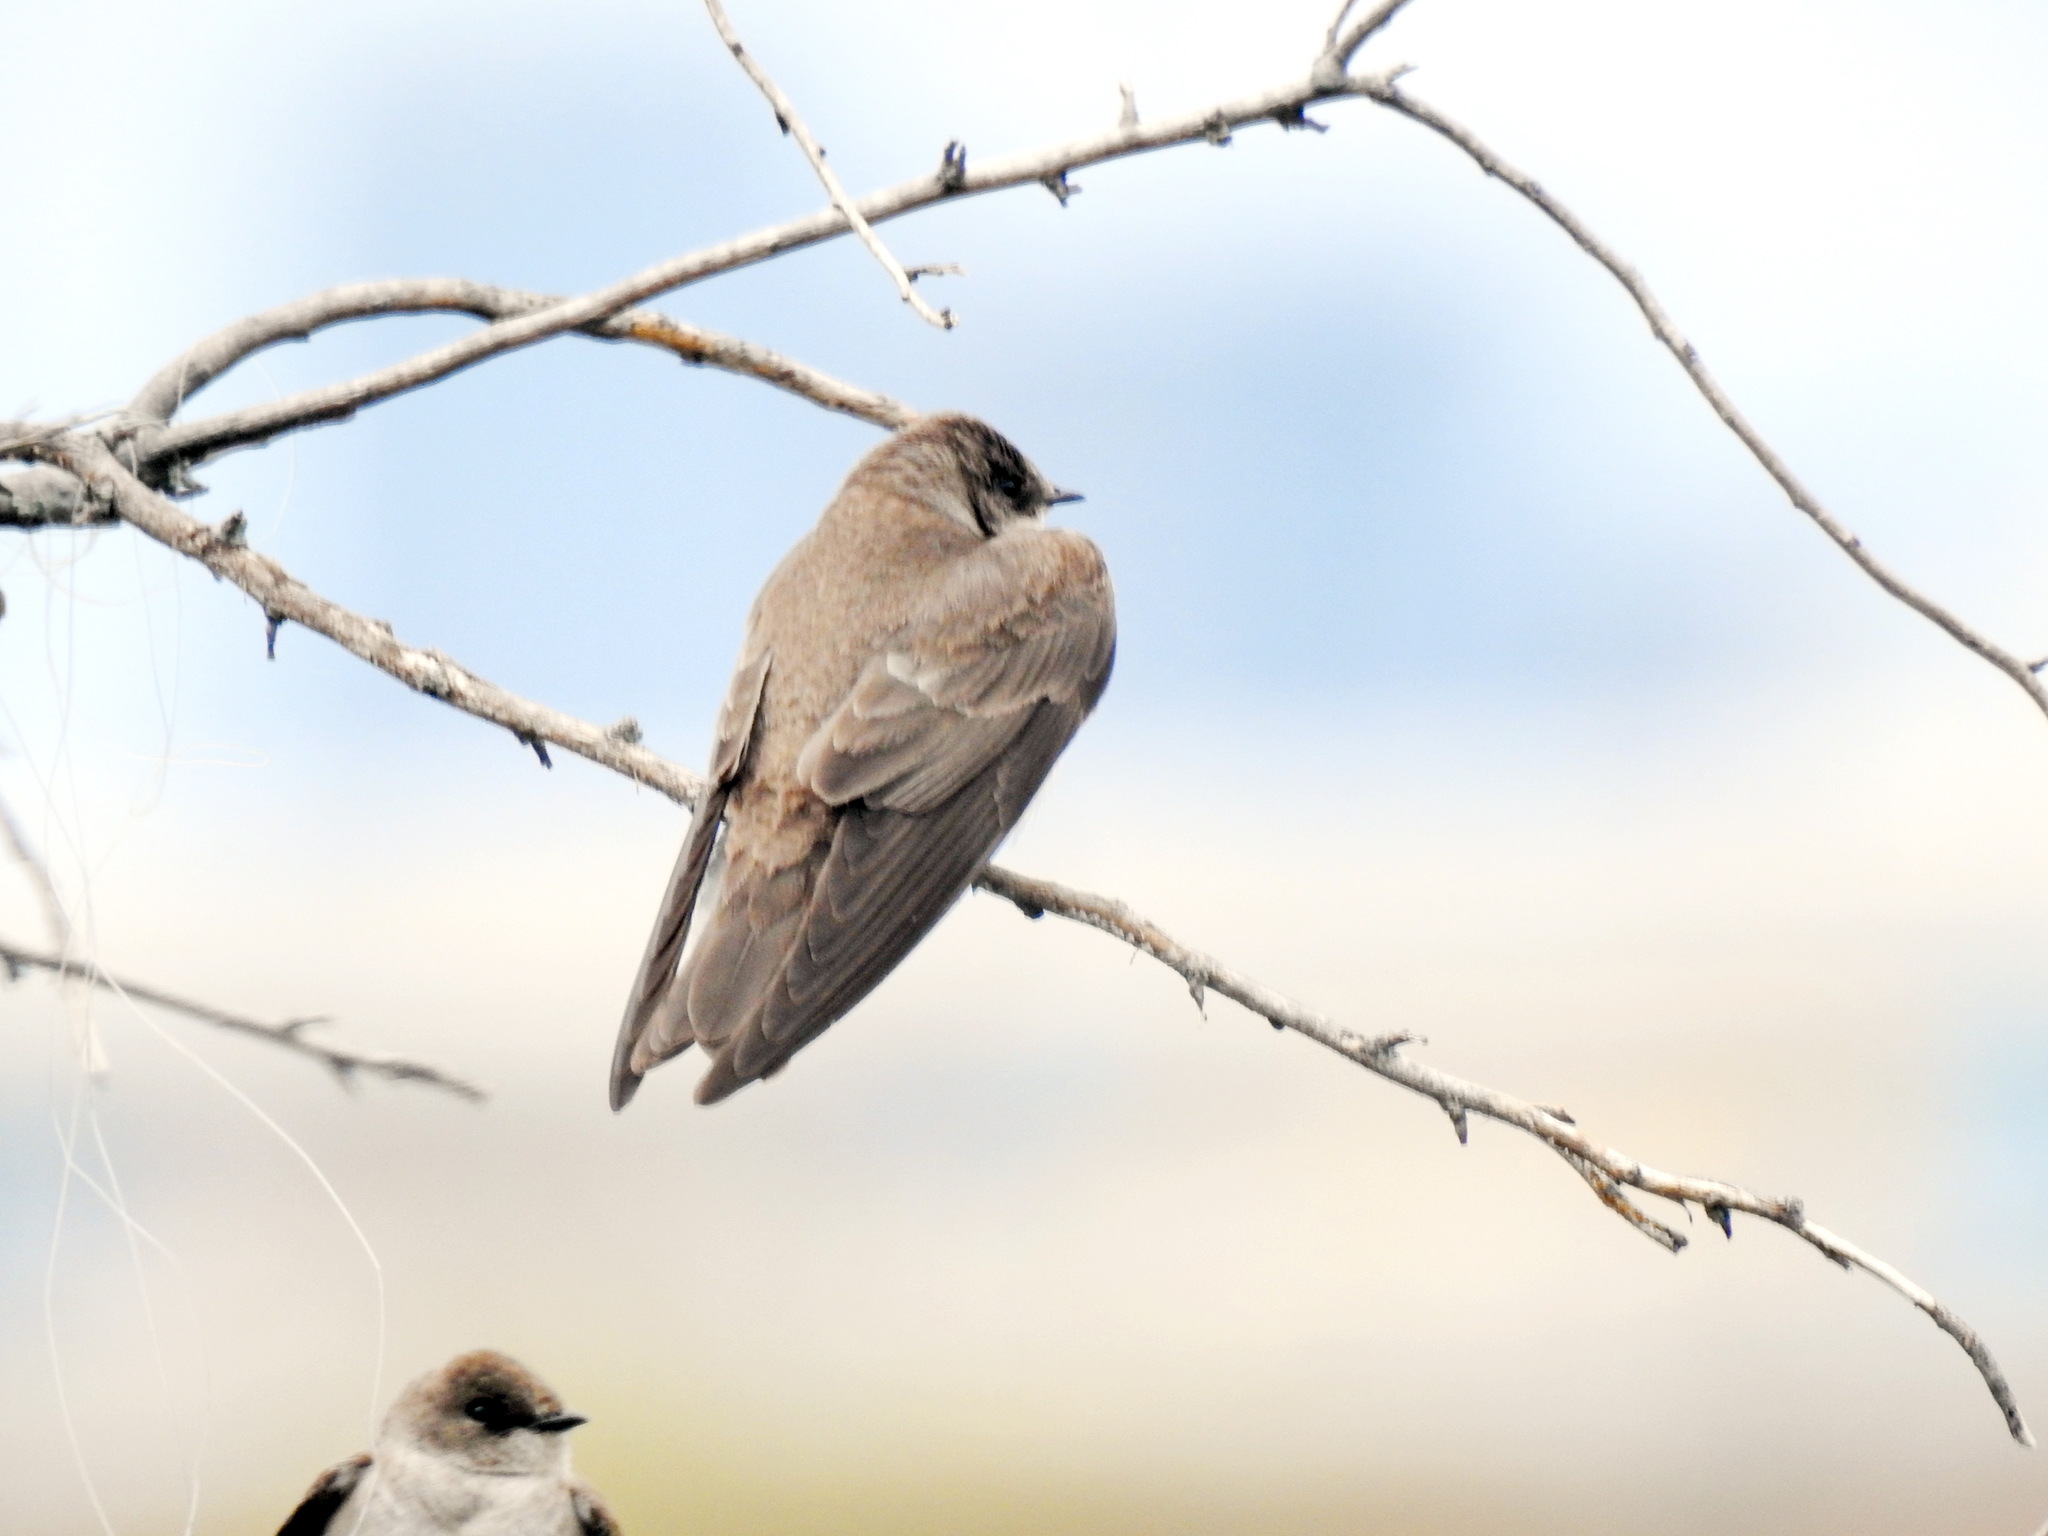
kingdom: Animalia
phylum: Chordata
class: Aves
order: Passeriformes
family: Hirundinidae
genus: Stelgidopteryx
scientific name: Stelgidopteryx serripennis
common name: Northern rough-winged swallow
